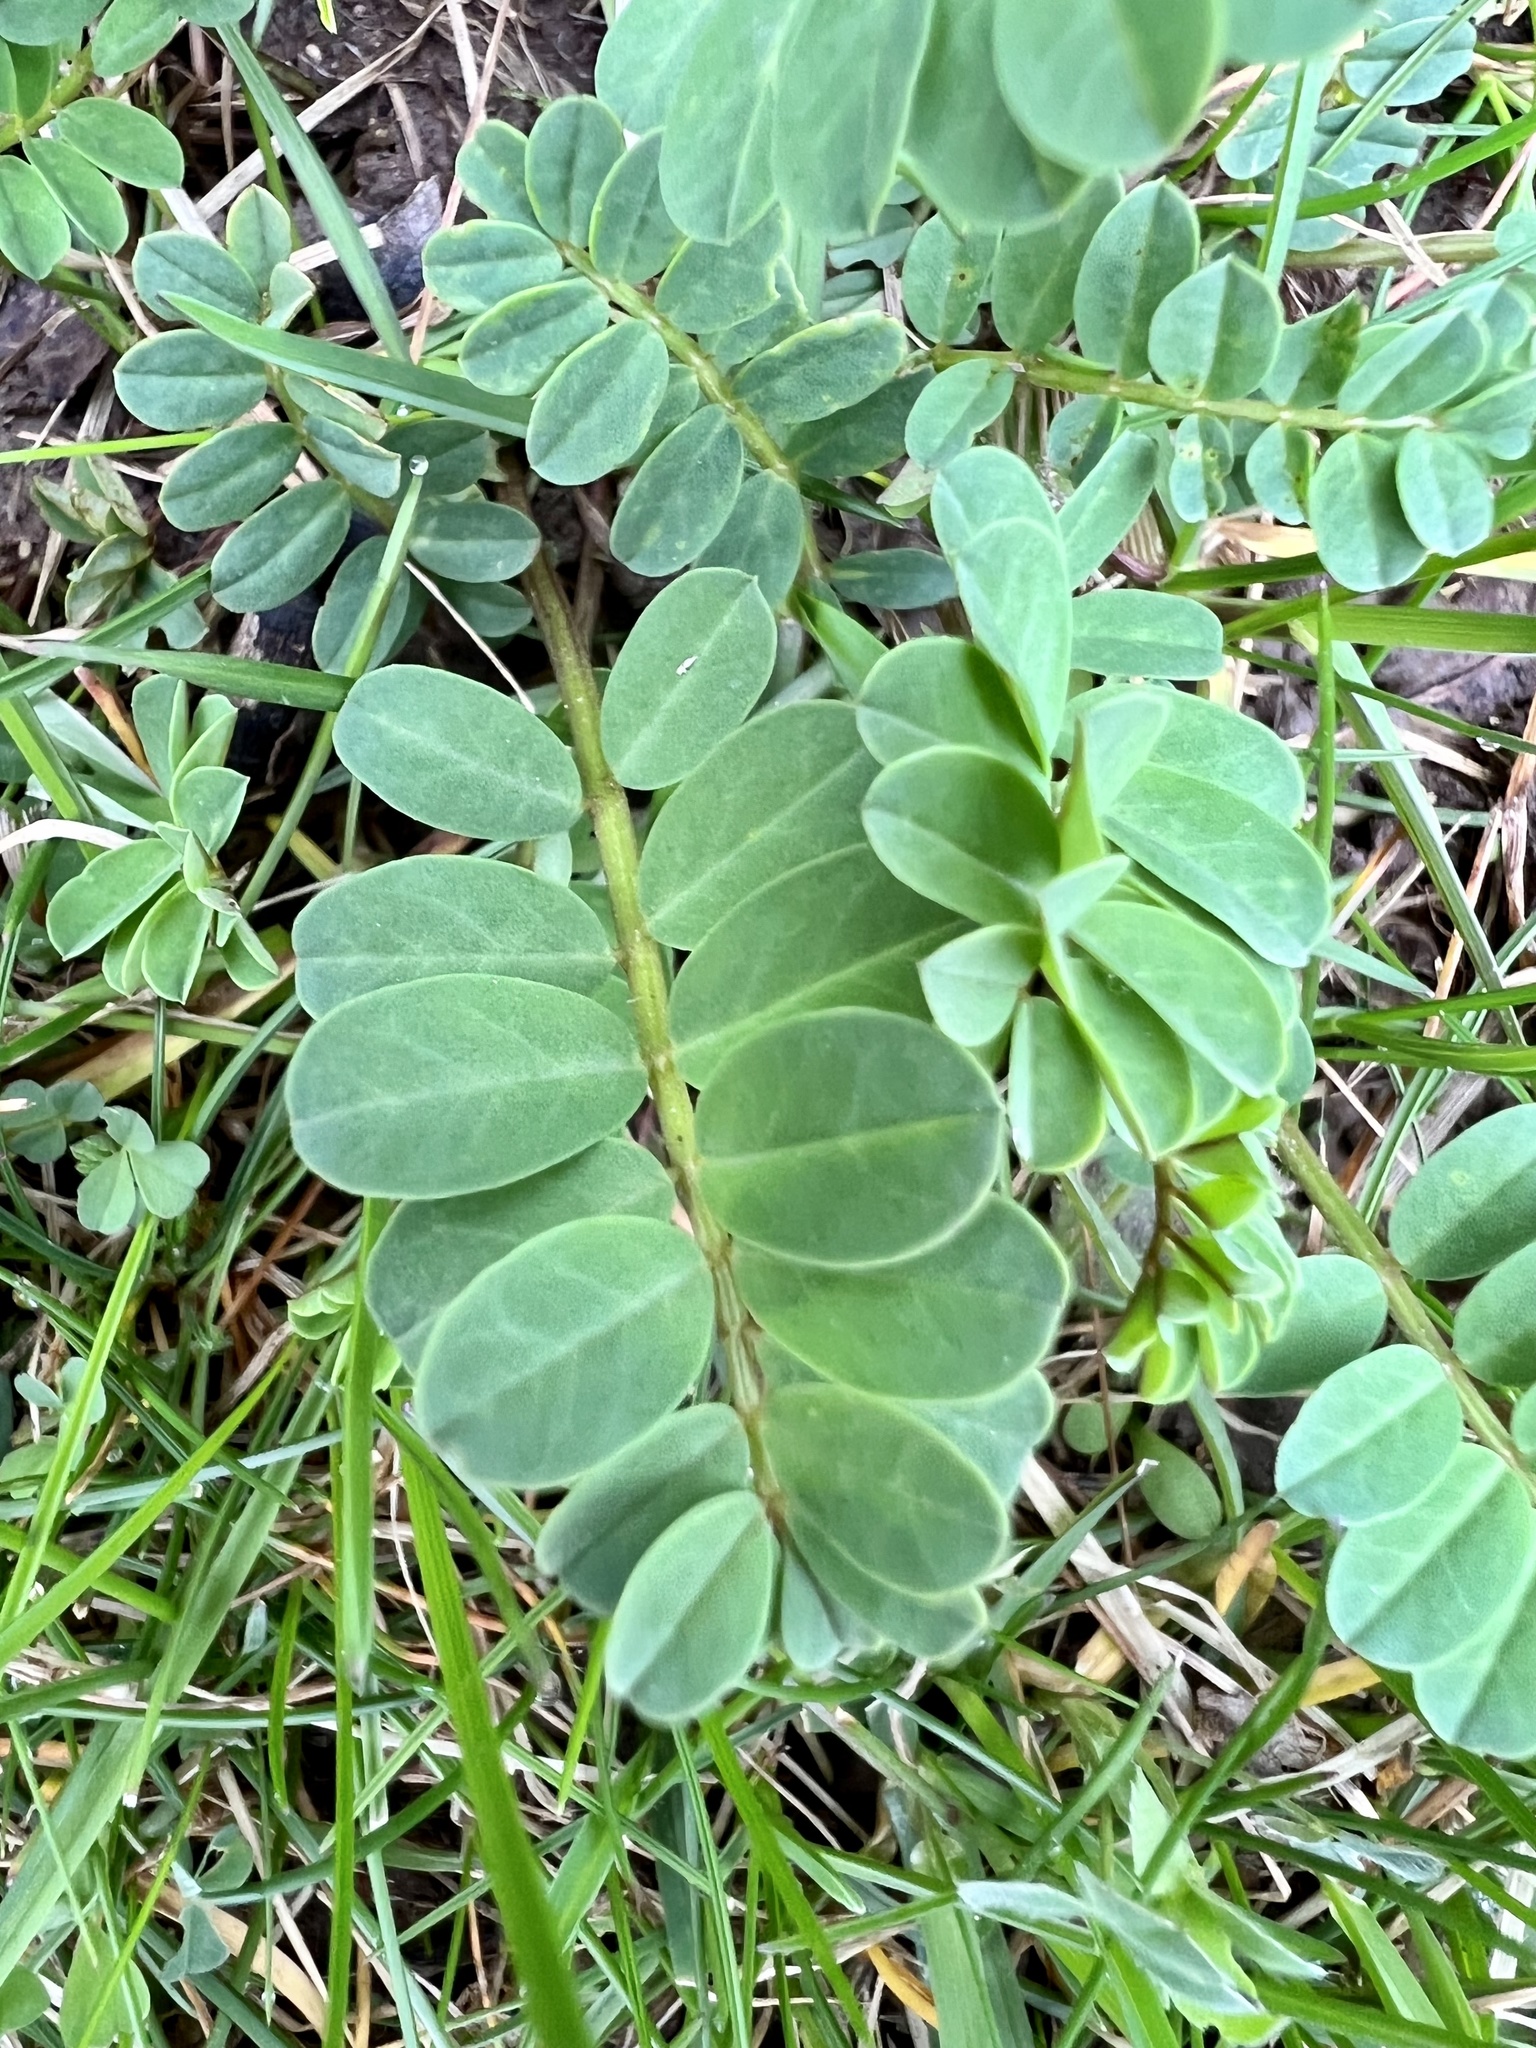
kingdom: Plantae
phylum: Tracheophyta
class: Magnoliopsida
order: Fabales
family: Fabaceae
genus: Coronilla
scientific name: Coronilla varia
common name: Crownvetch
